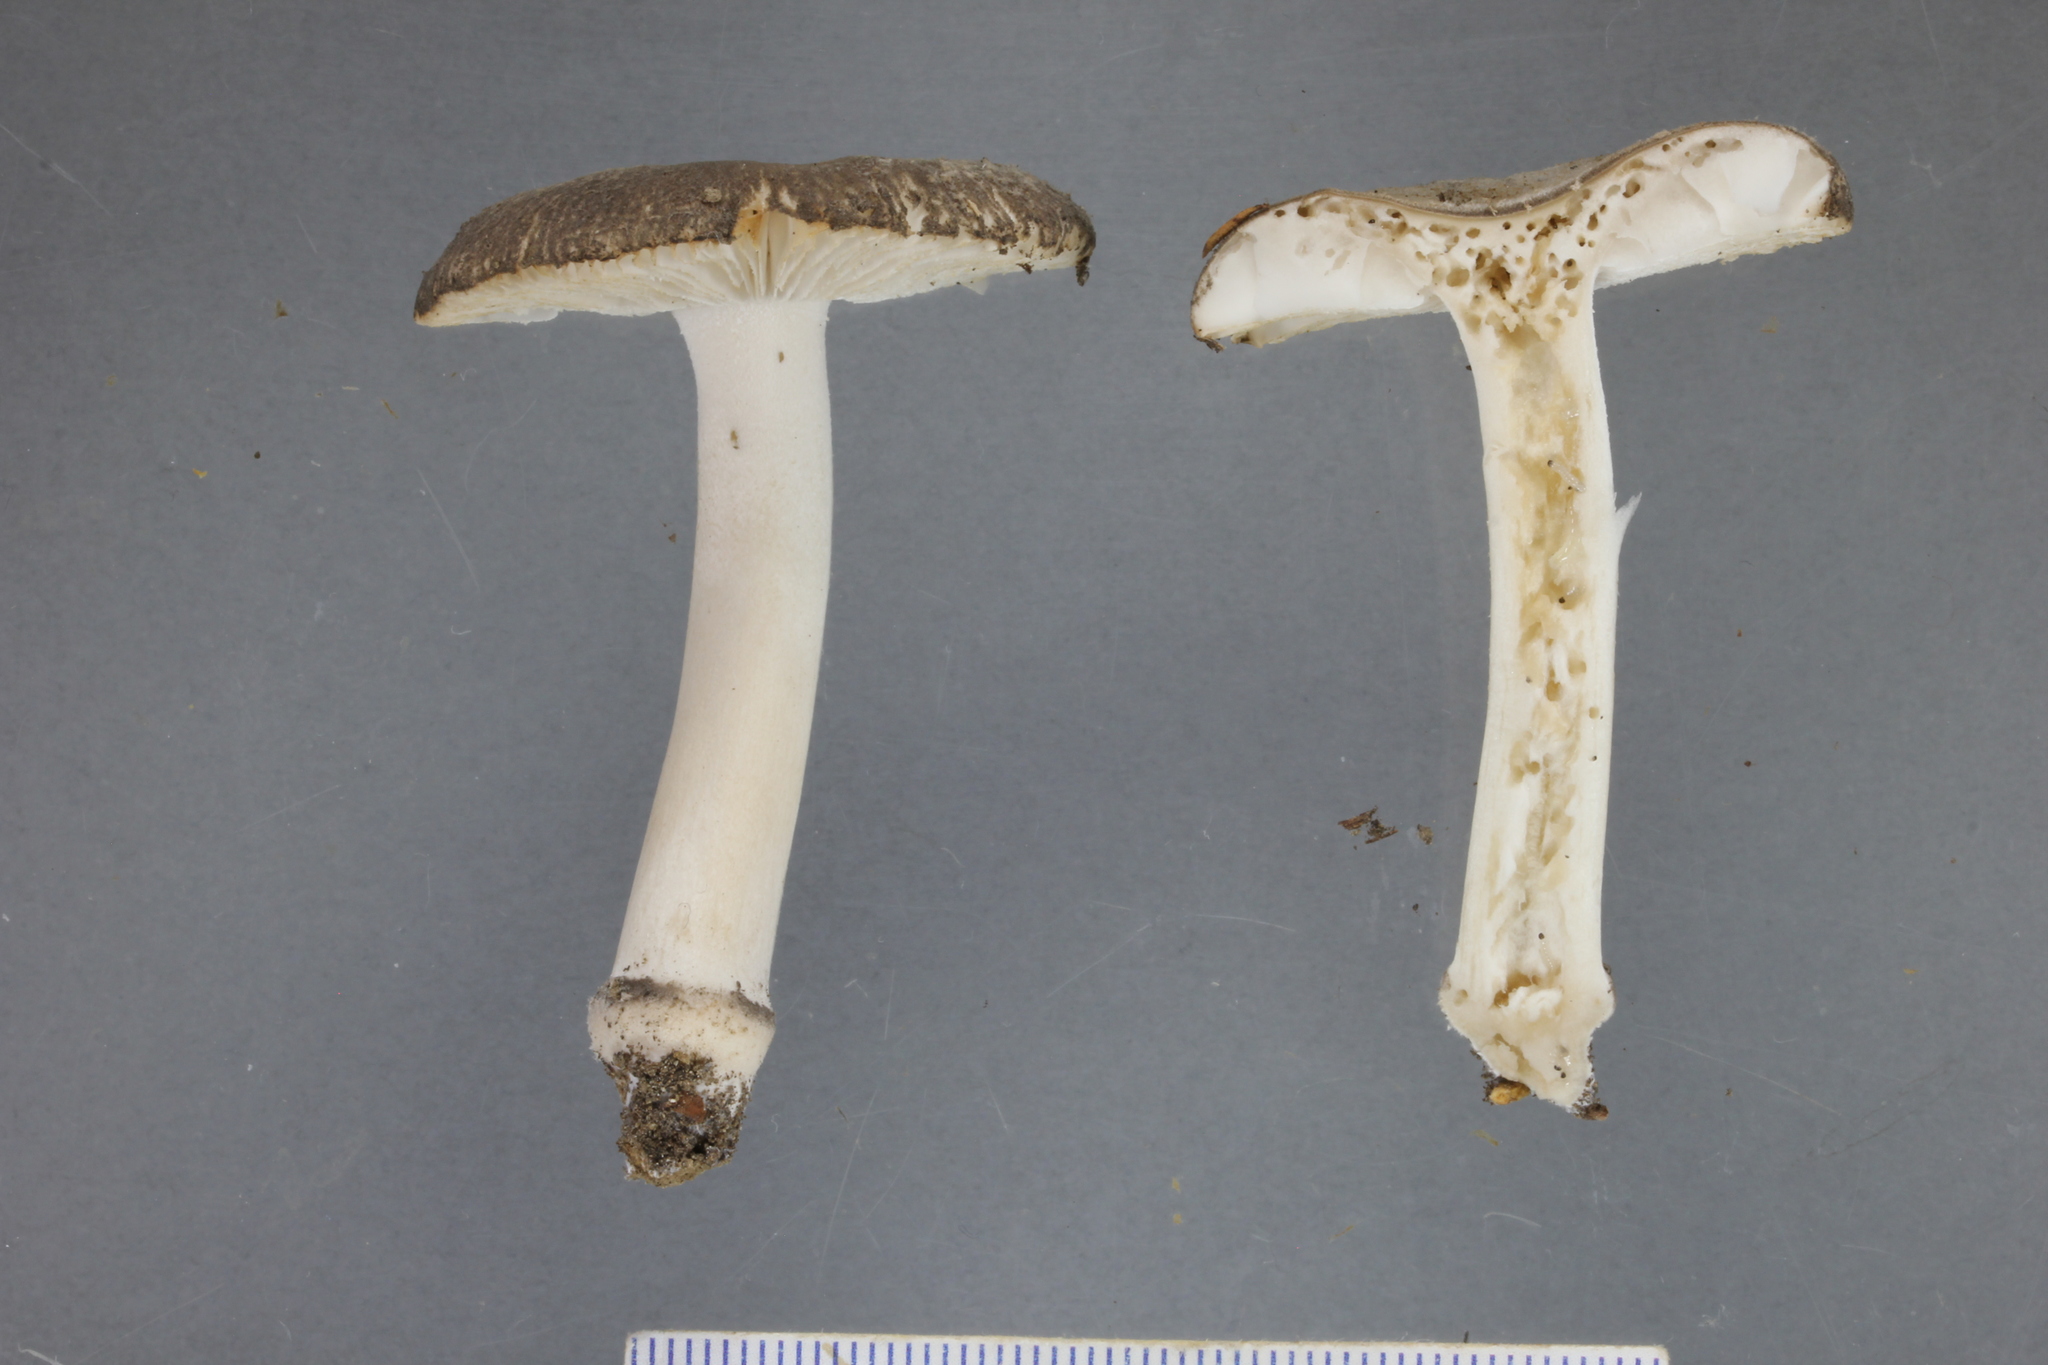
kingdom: Fungi
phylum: Basidiomycota
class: Agaricomycetes
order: Agaricales
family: Amanitaceae
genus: Amanita
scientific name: Amanita nehuta
